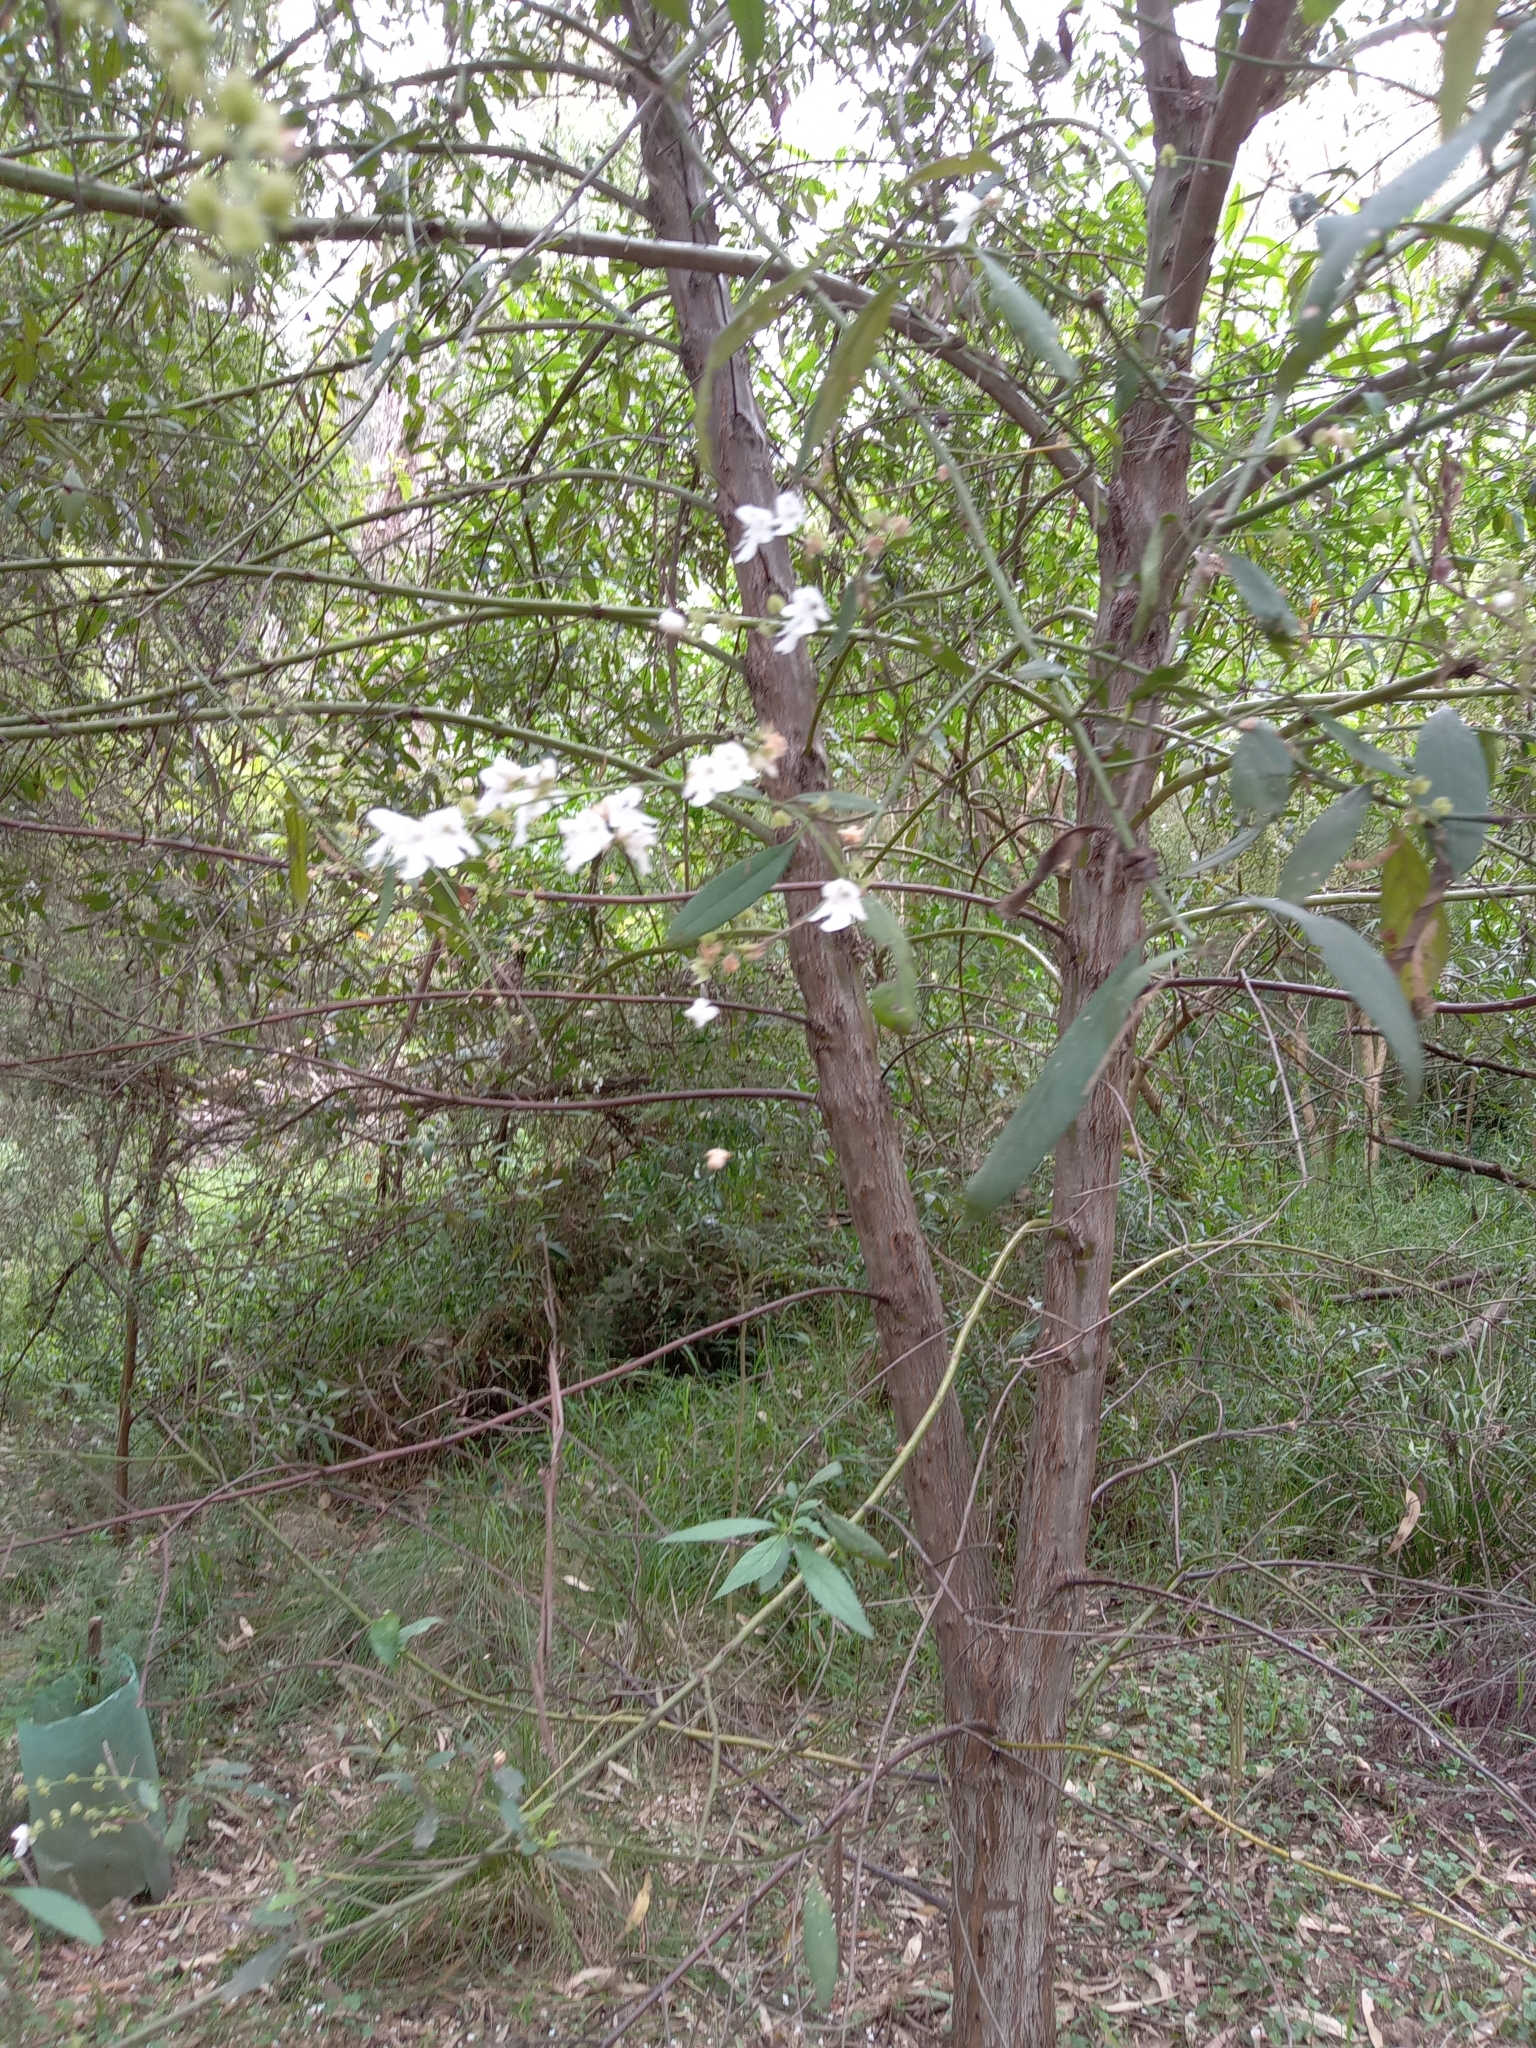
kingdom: Plantae
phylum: Tracheophyta
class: Magnoliopsida
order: Lamiales
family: Lamiaceae
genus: Prostanthera
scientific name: Prostanthera lasianthos
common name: Mountain-lilac
